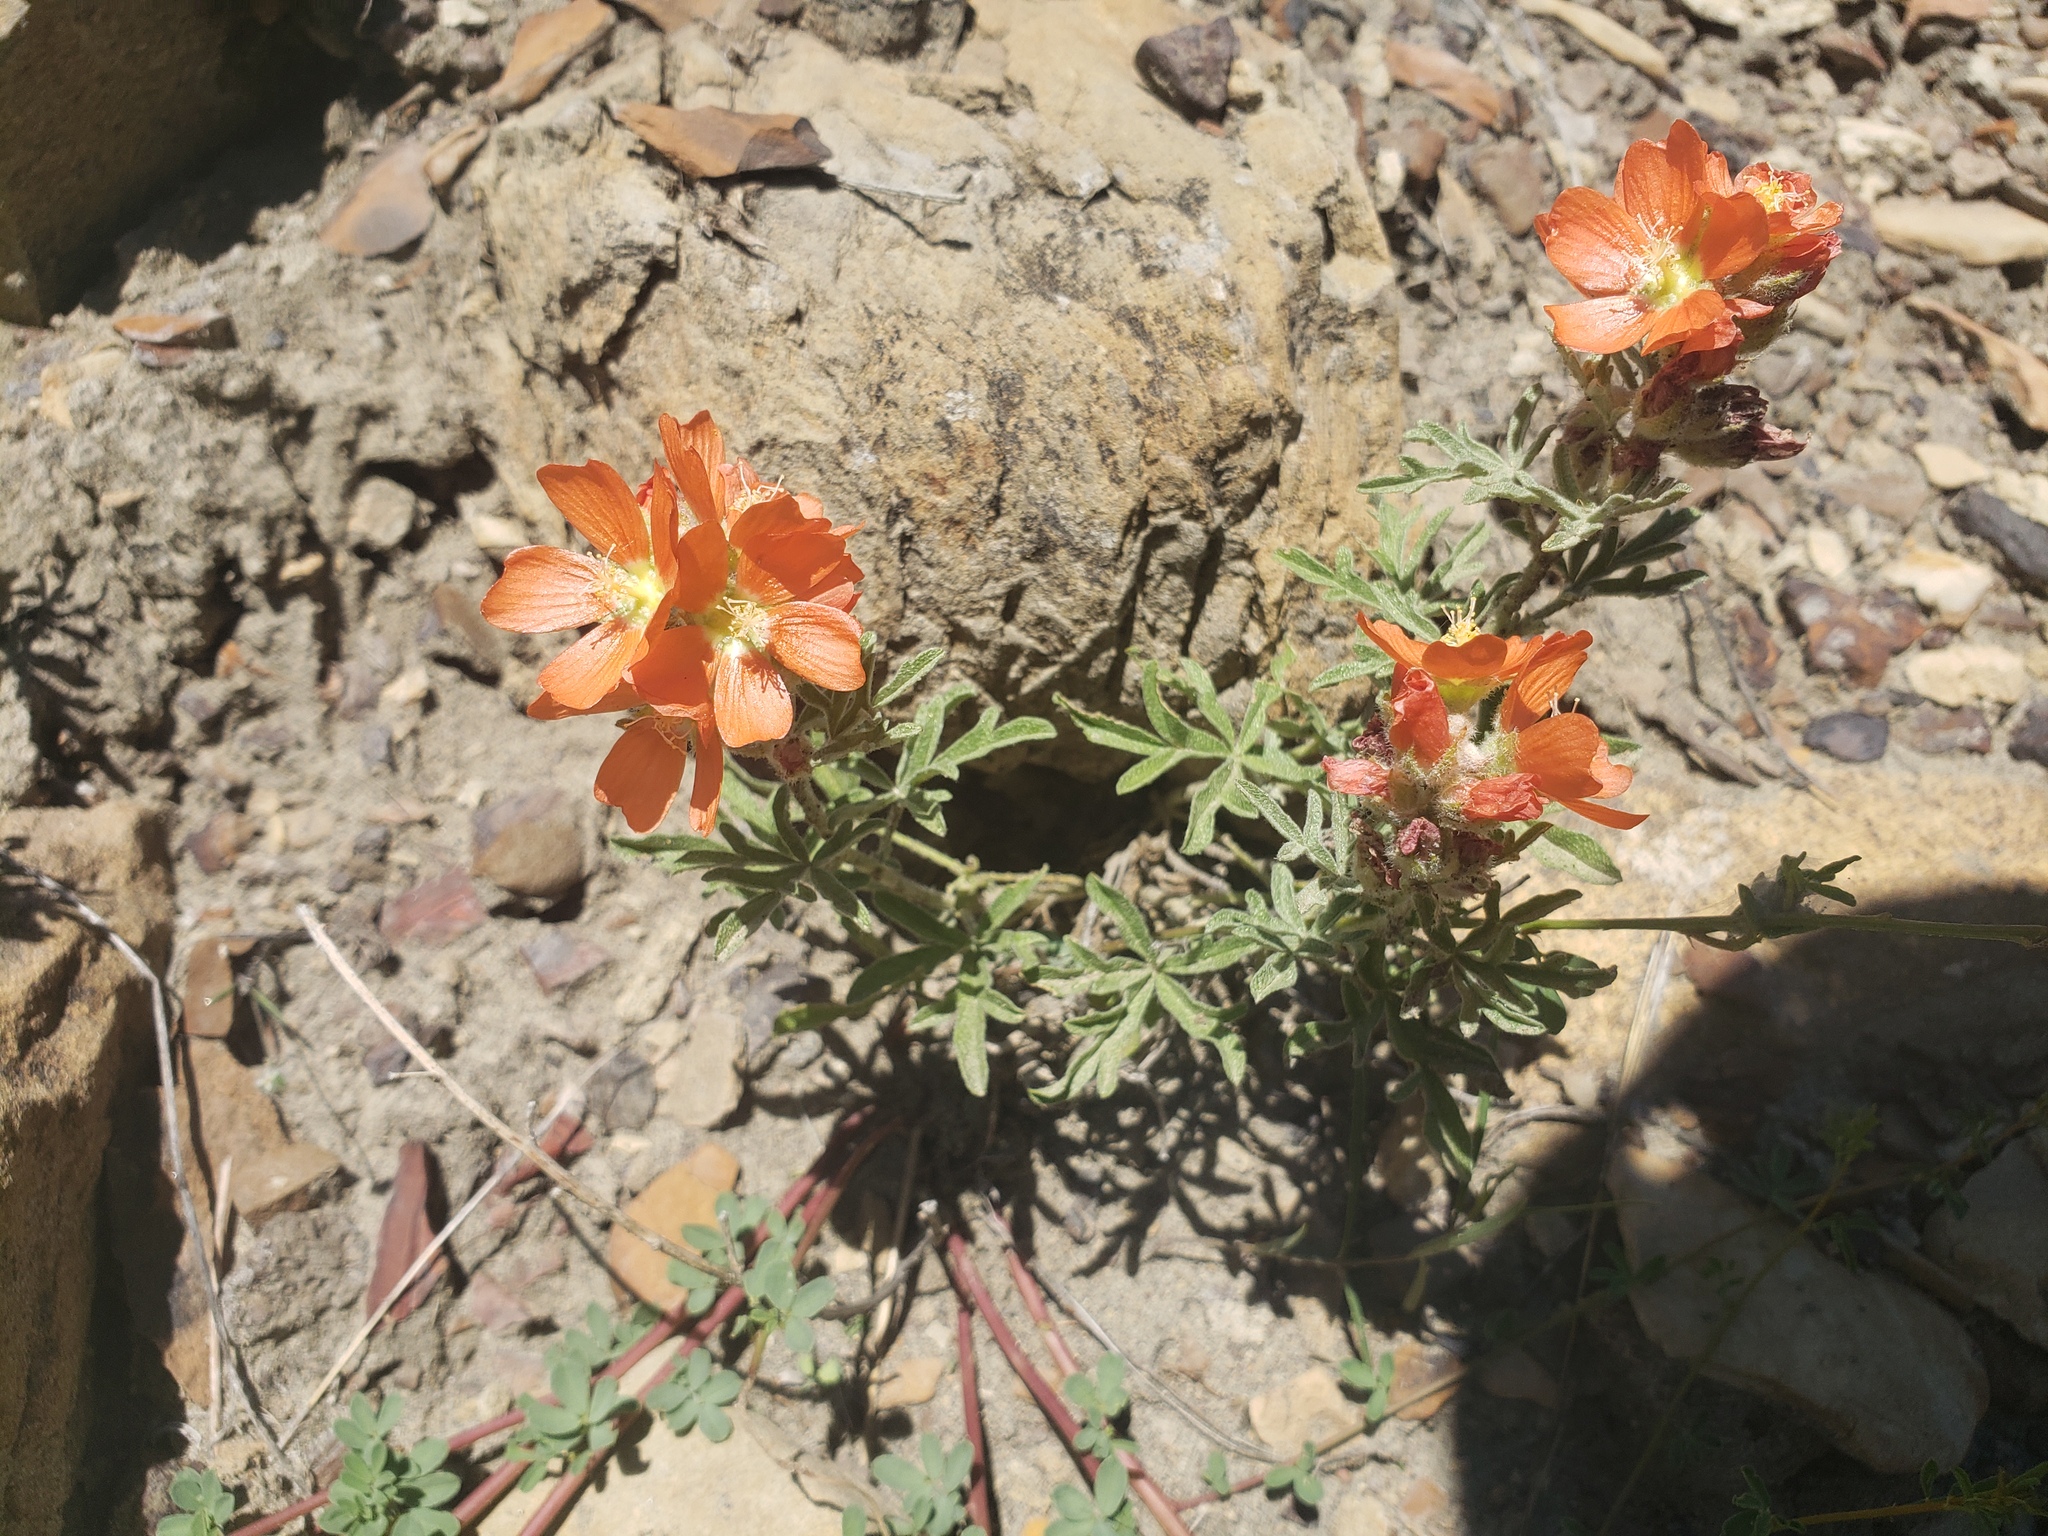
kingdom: Plantae
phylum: Tracheophyta
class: Magnoliopsida
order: Malvales
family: Malvaceae
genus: Sphaeralcea
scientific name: Sphaeralcea coccinea
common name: Moss-rose
